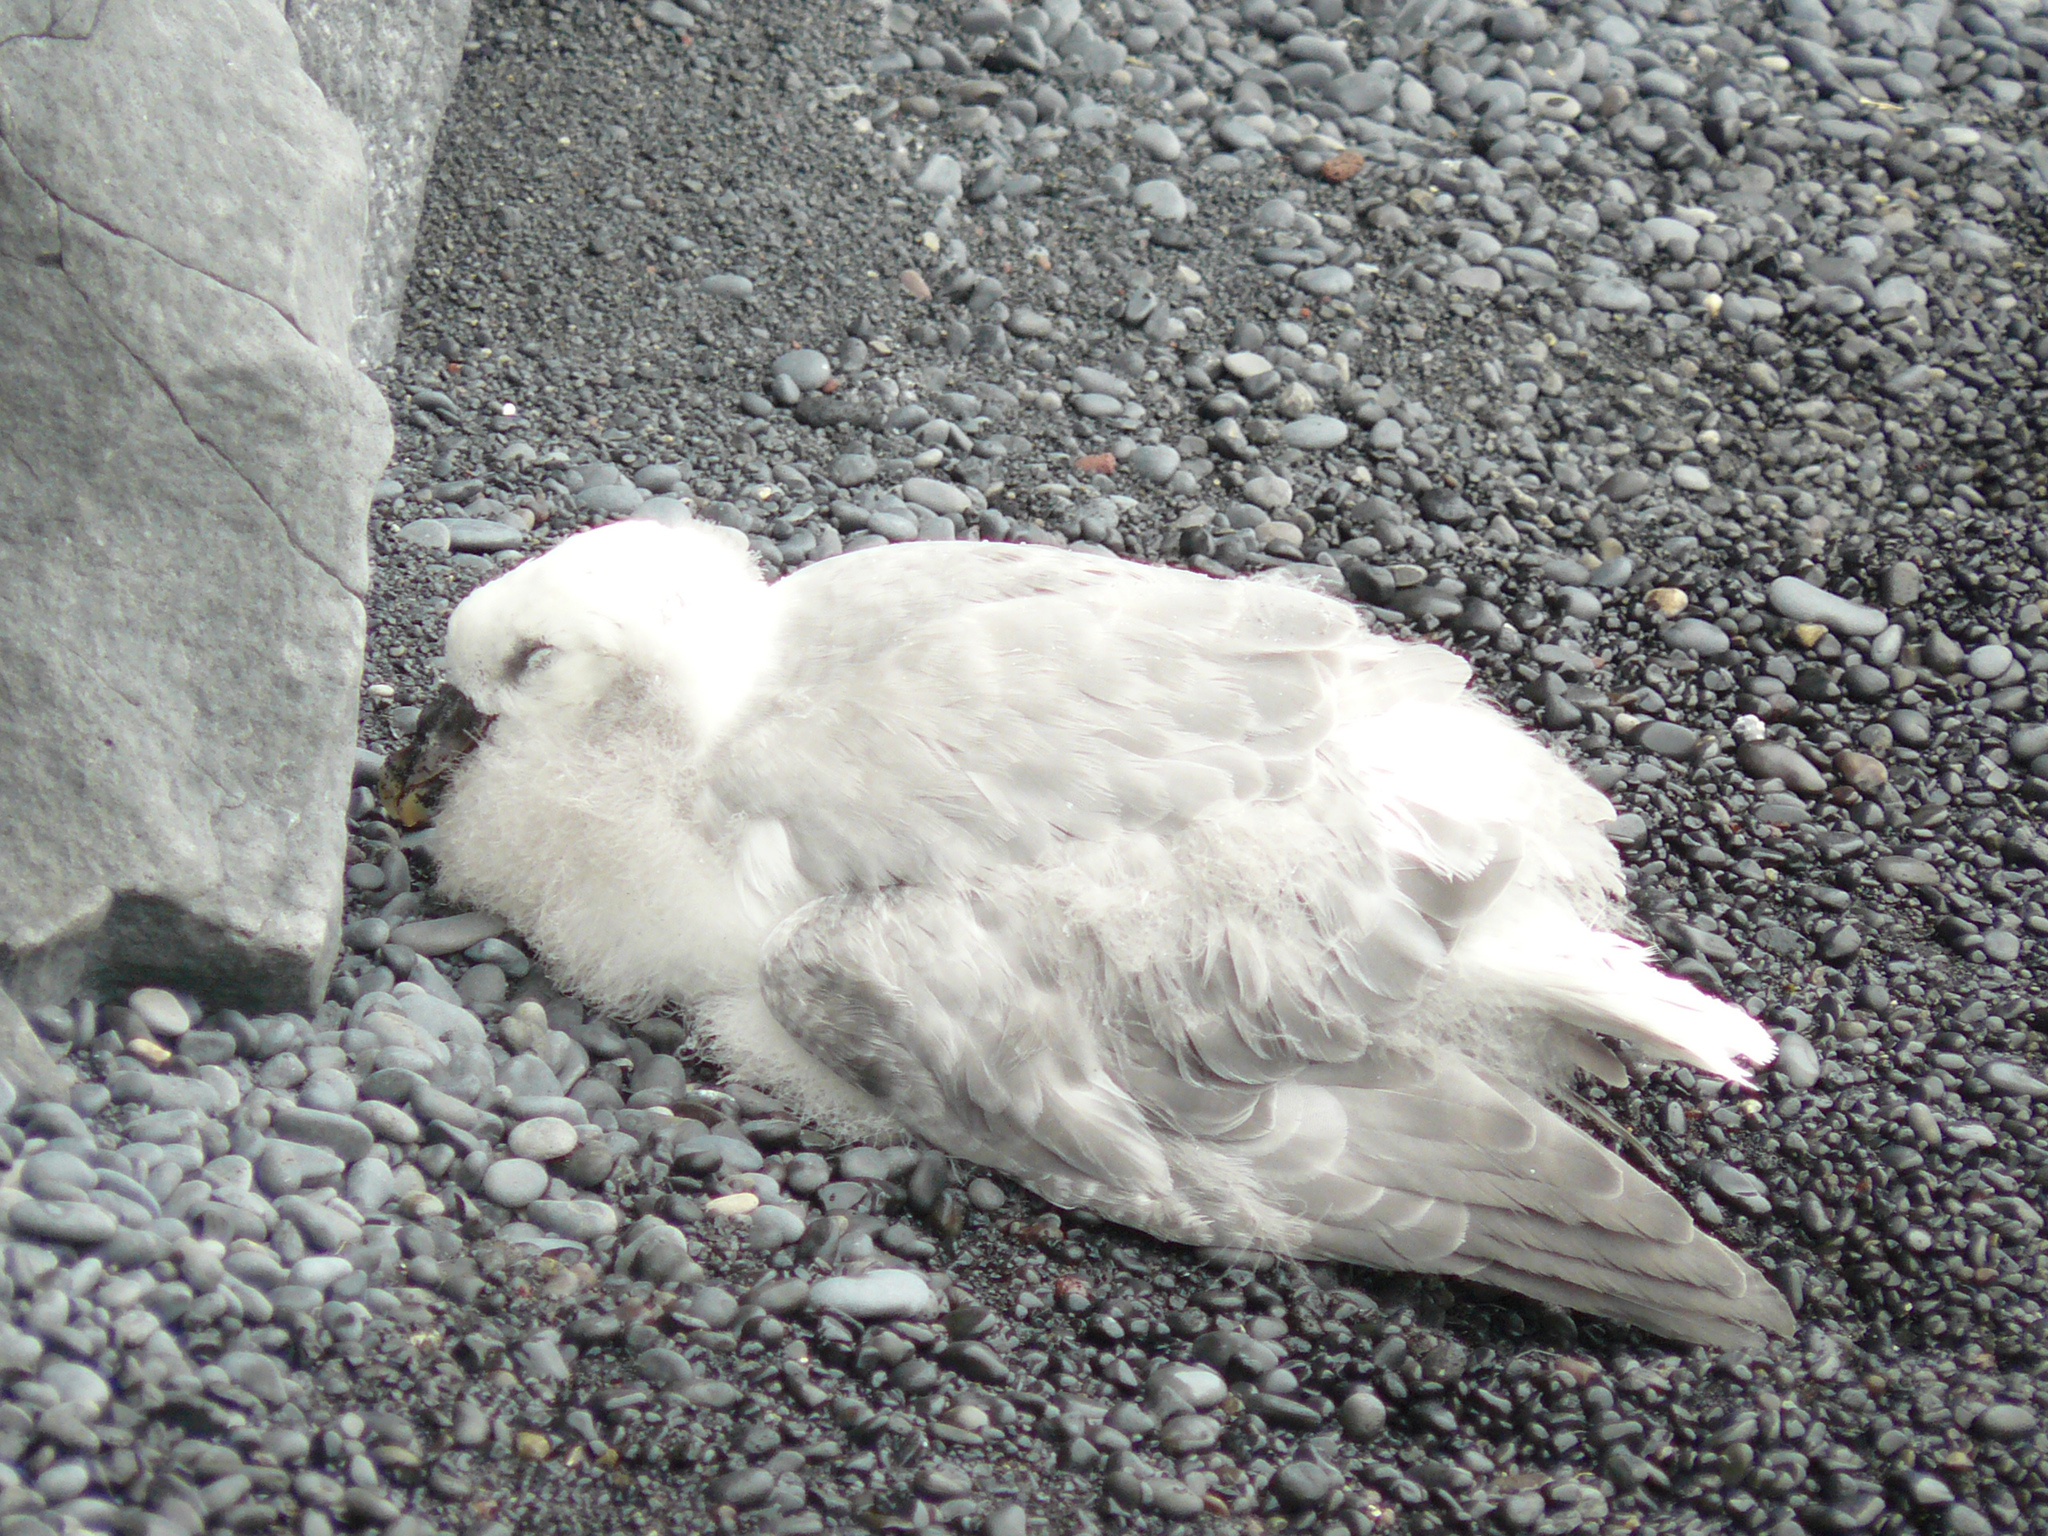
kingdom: Animalia
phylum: Chordata
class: Aves
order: Procellariiformes
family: Procellariidae
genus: Fulmarus
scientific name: Fulmarus glacialis
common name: Northern fulmar
